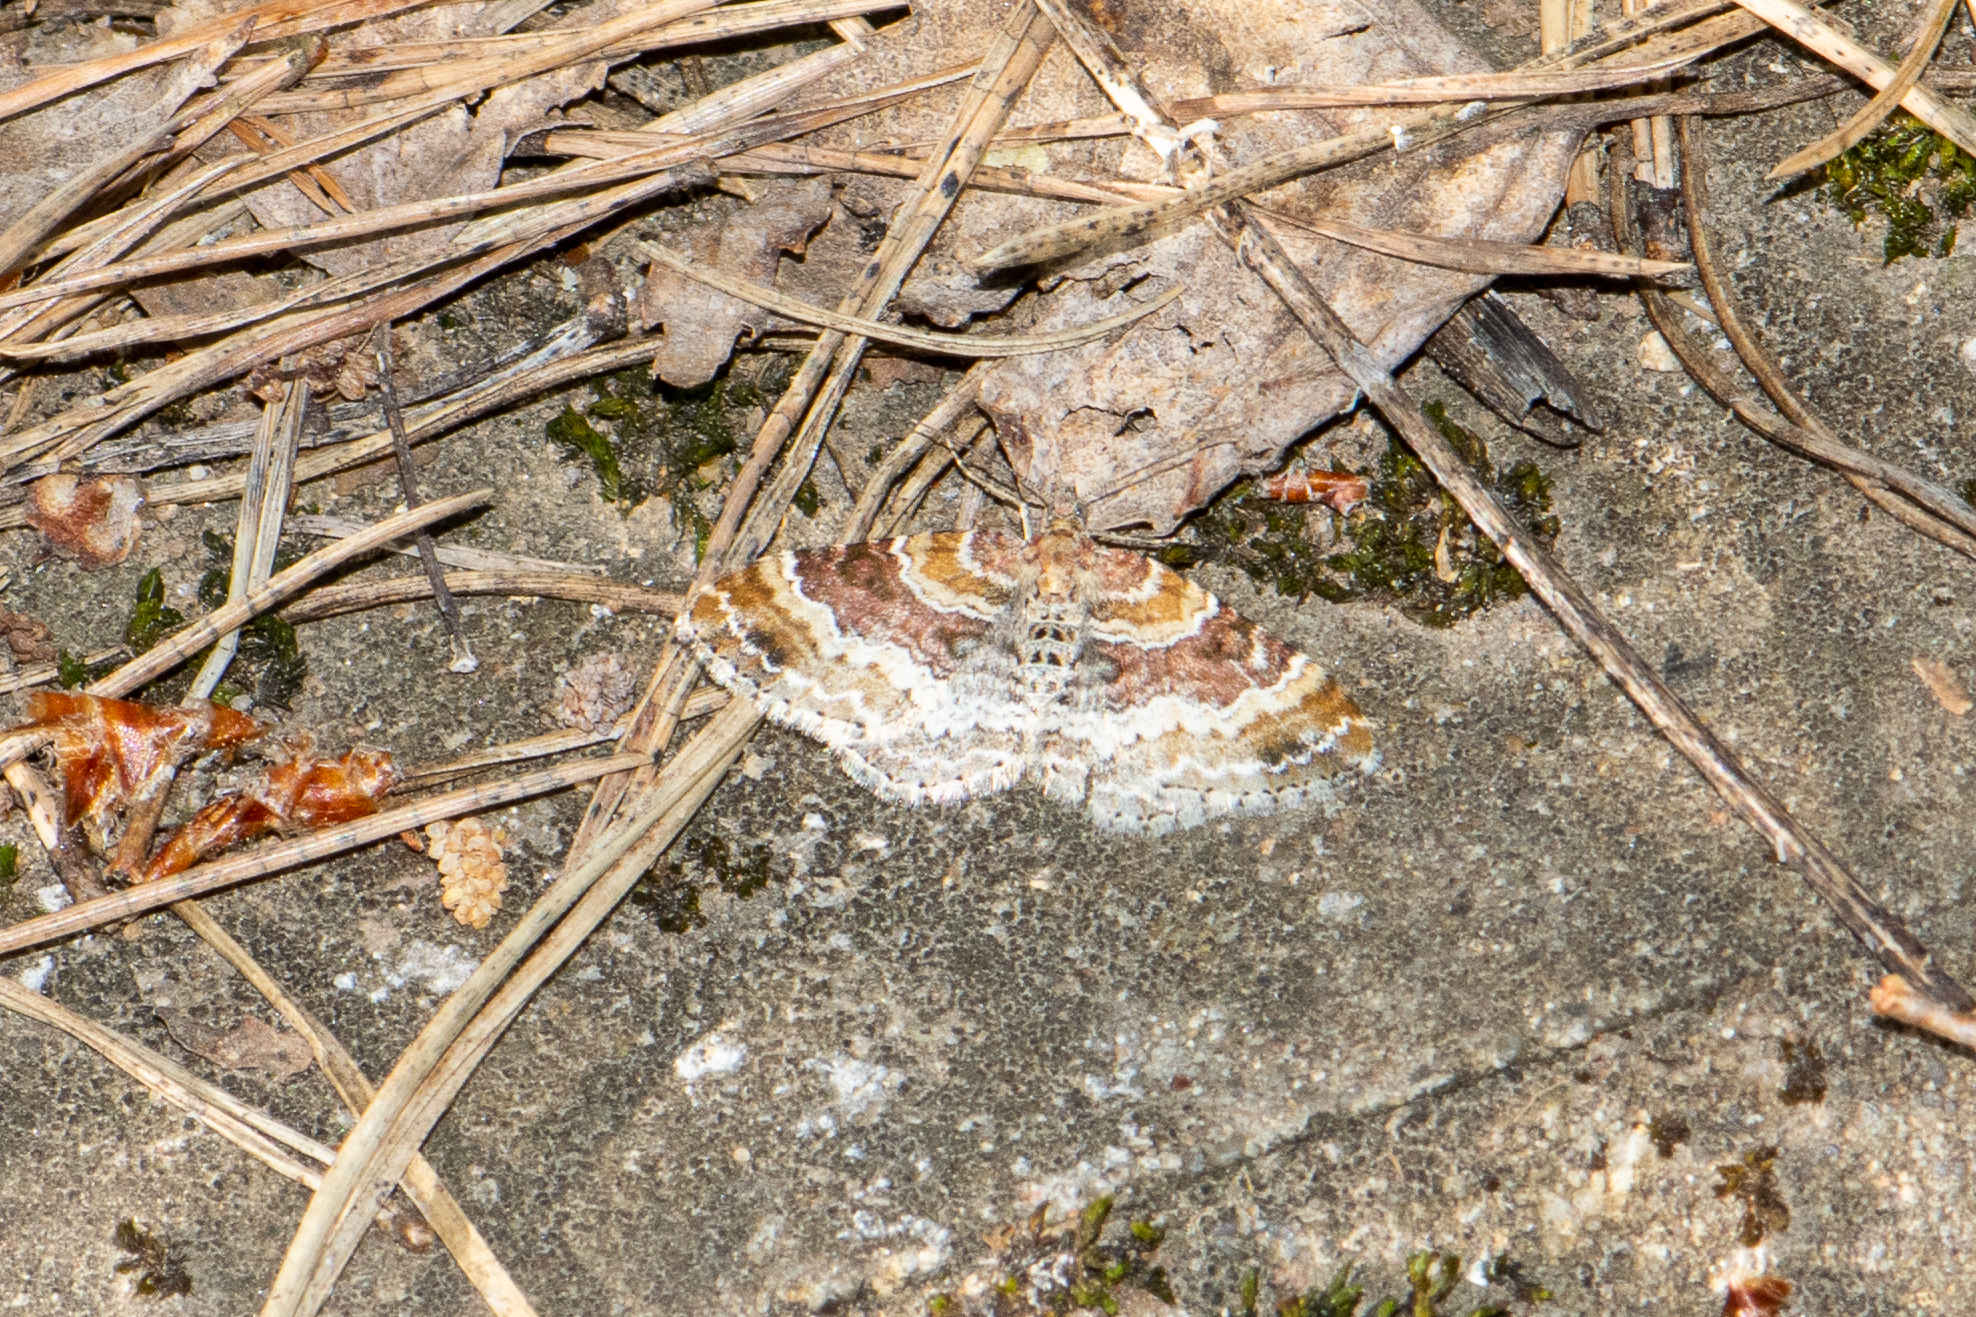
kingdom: Animalia
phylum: Arthropoda
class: Insecta
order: Lepidoptera
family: Geometridae
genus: Xanthorhoe
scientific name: Xanthorhoe spadicearia
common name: Red twin-spot carpet
